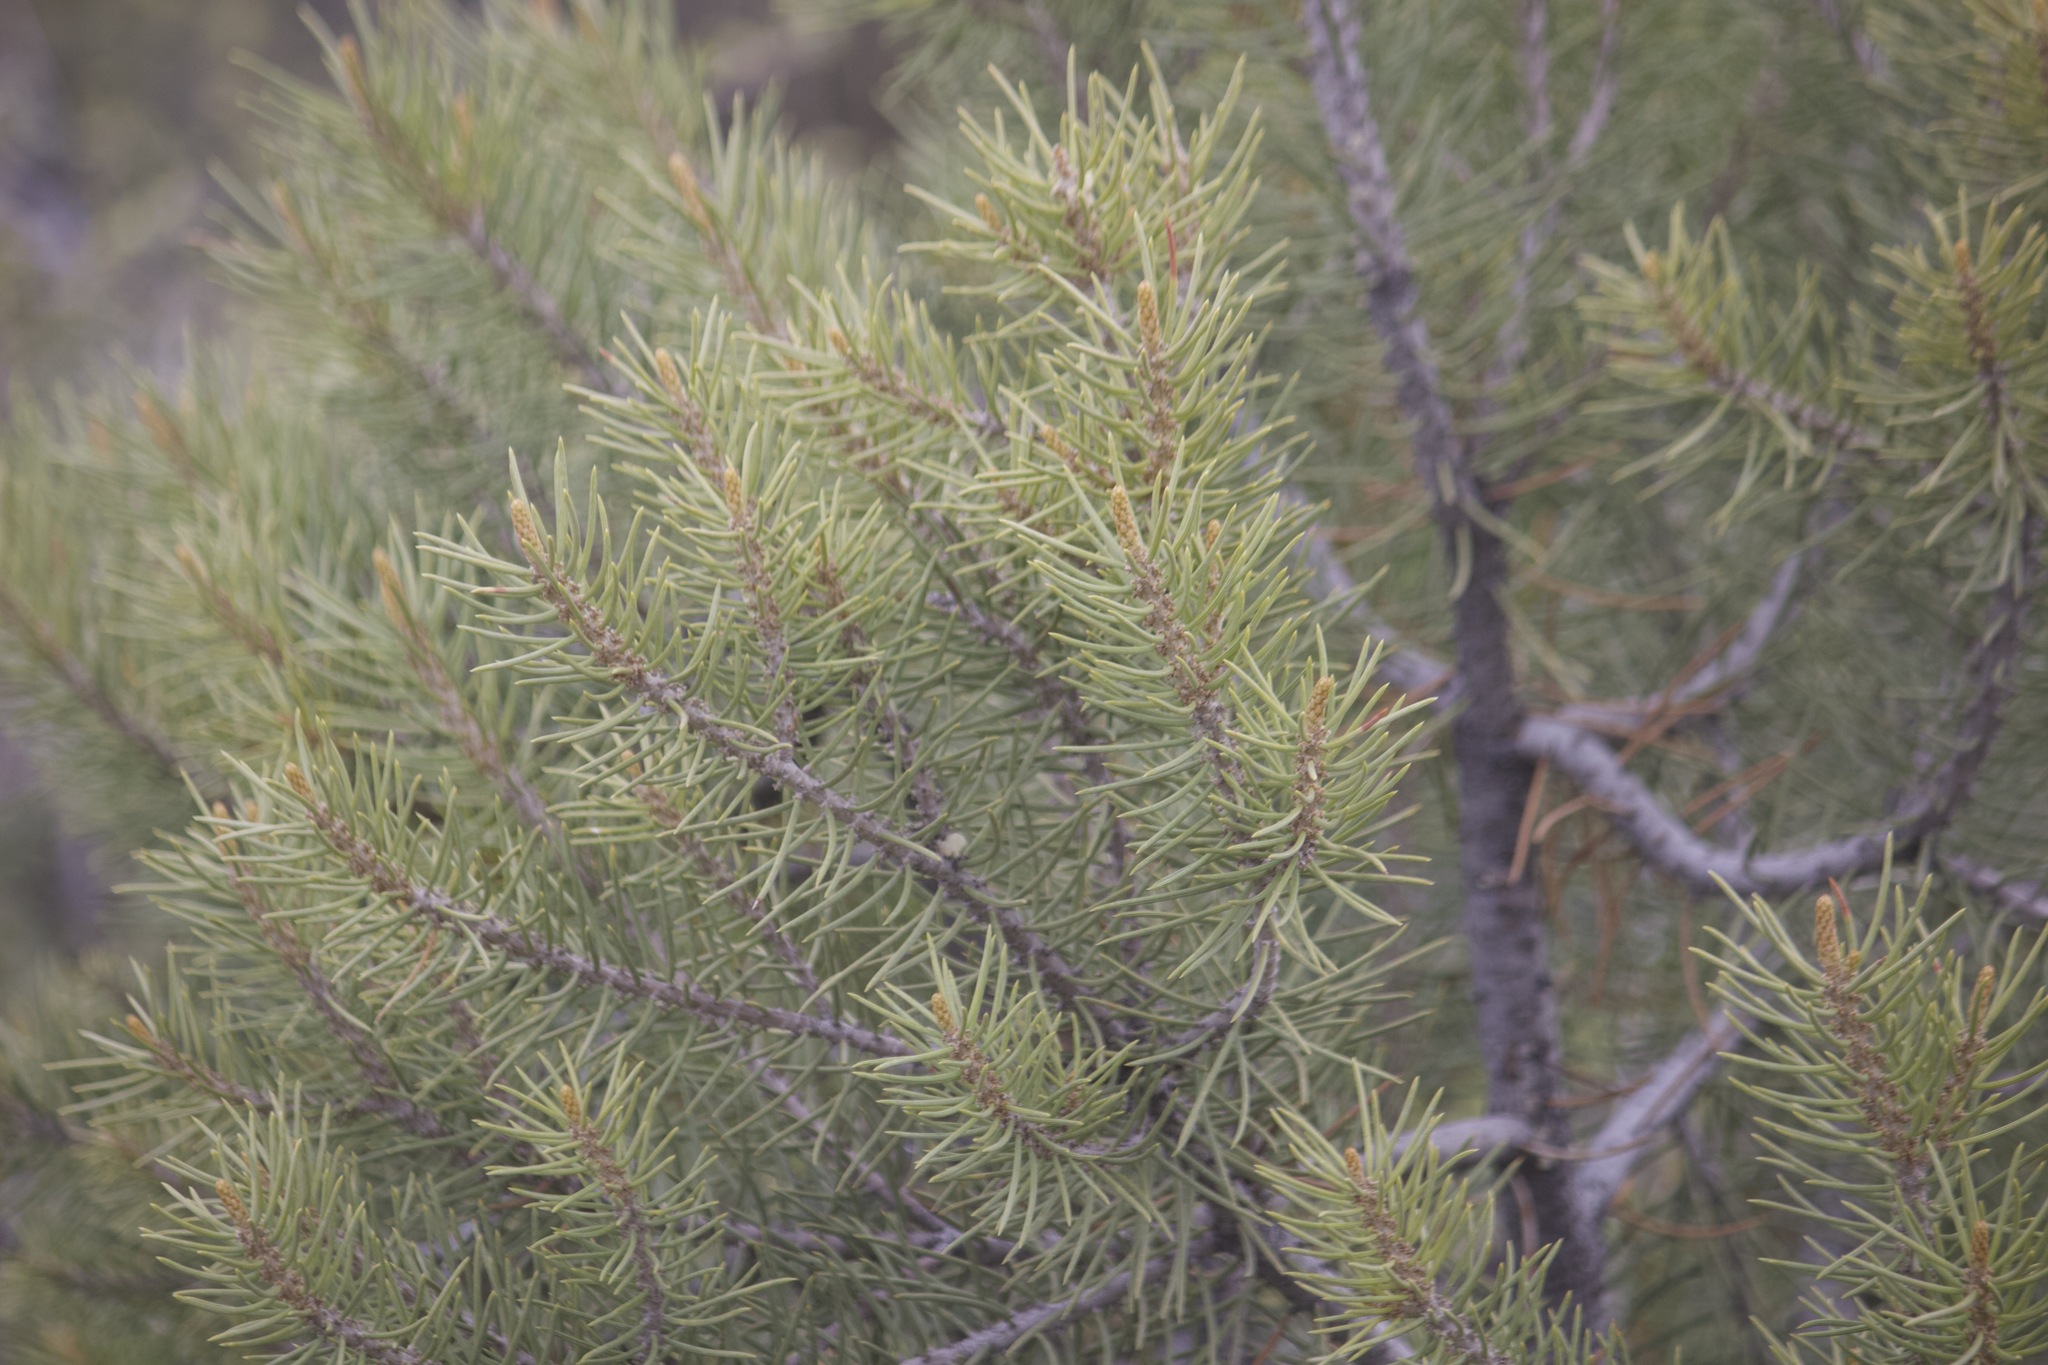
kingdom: Plantae
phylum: Tracheophyta
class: Pinopsida
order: Pinales
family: Pinaceae
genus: Pinus
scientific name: Pinus monophylla
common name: One-leaved nut pine
